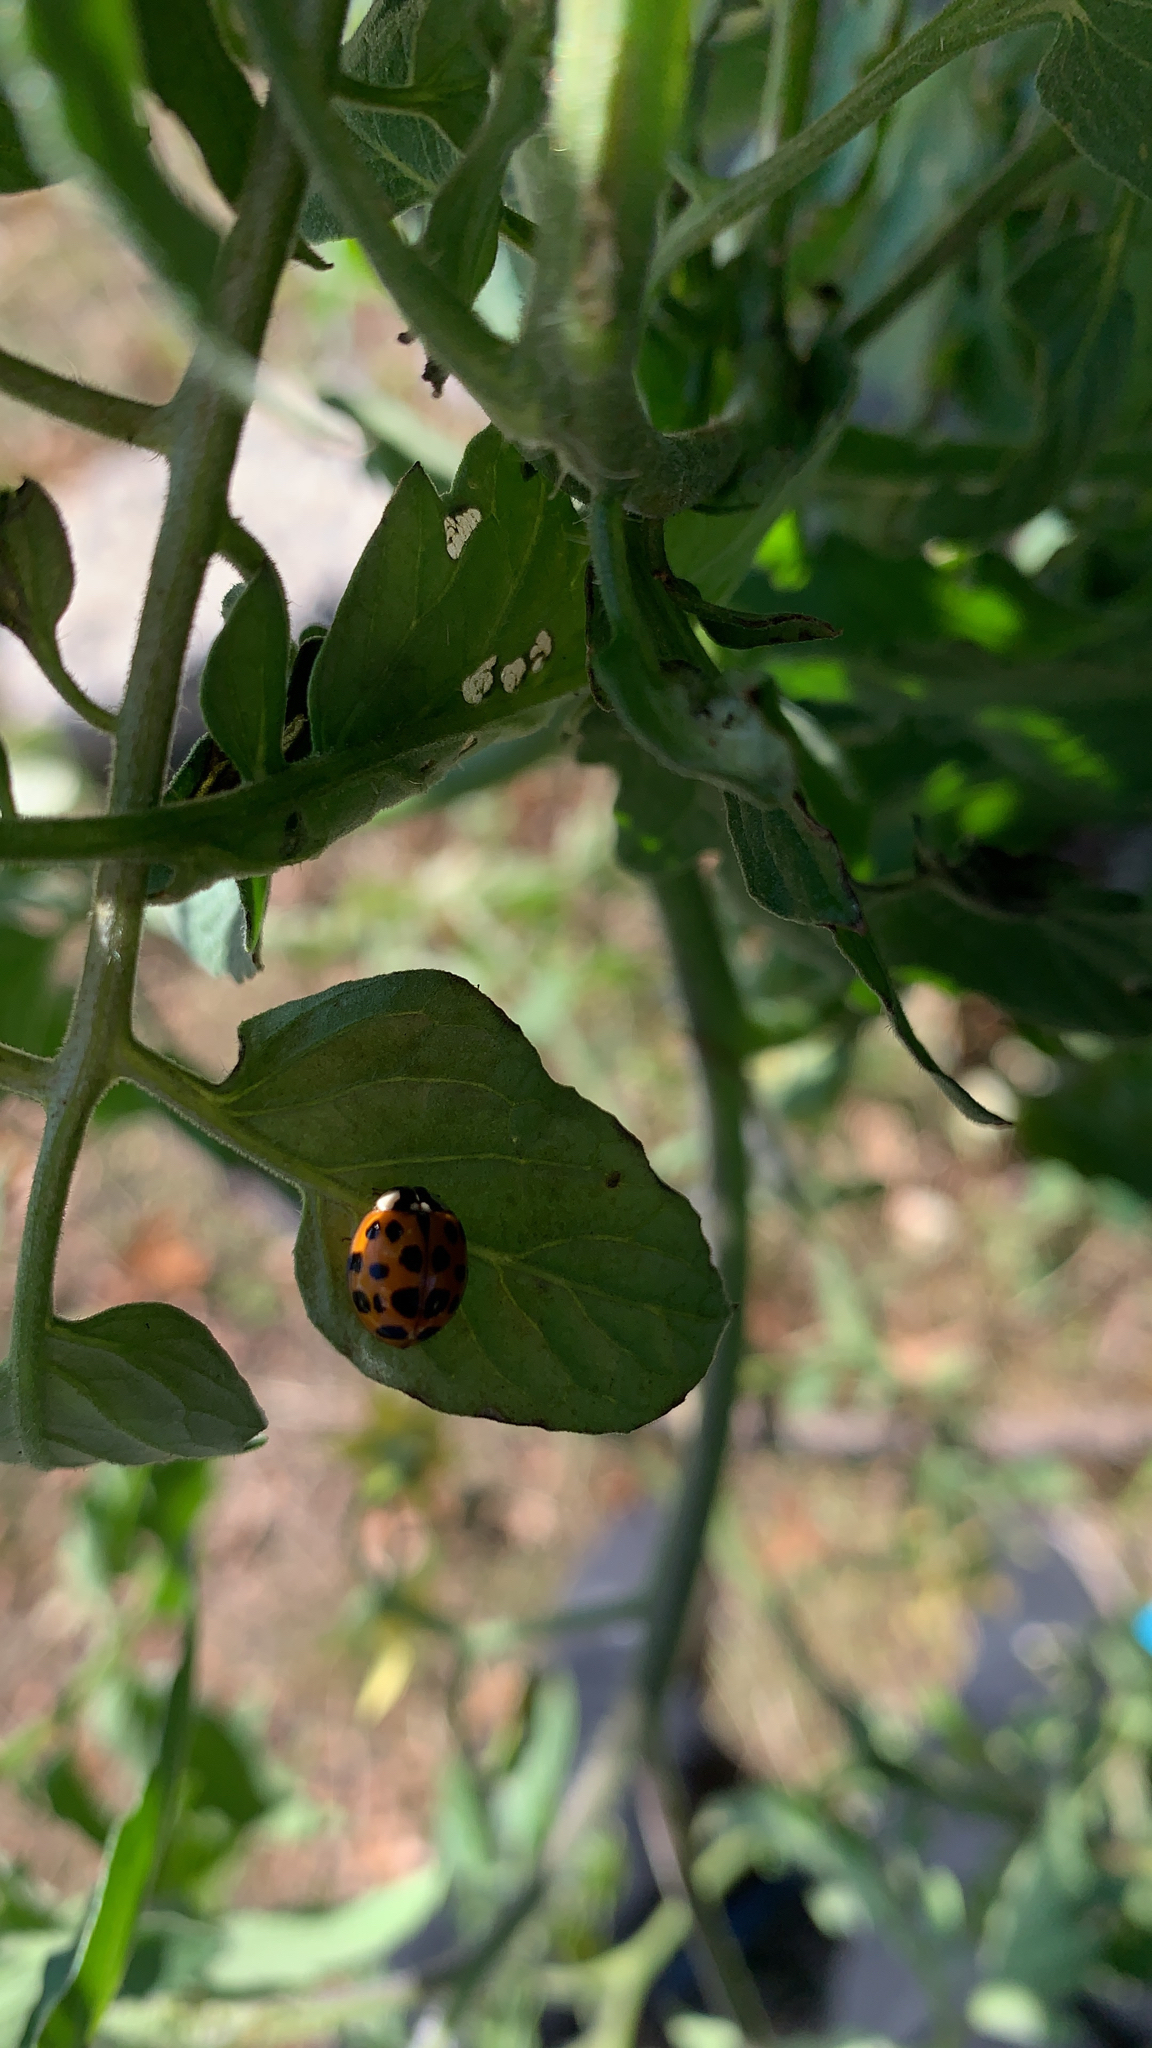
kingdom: Animalia
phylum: Arthropoda
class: Insecta
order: Coleoptera
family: Coccinellidae
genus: Harmonia
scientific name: Harmonia axyridis
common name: Harlequin ladybird
